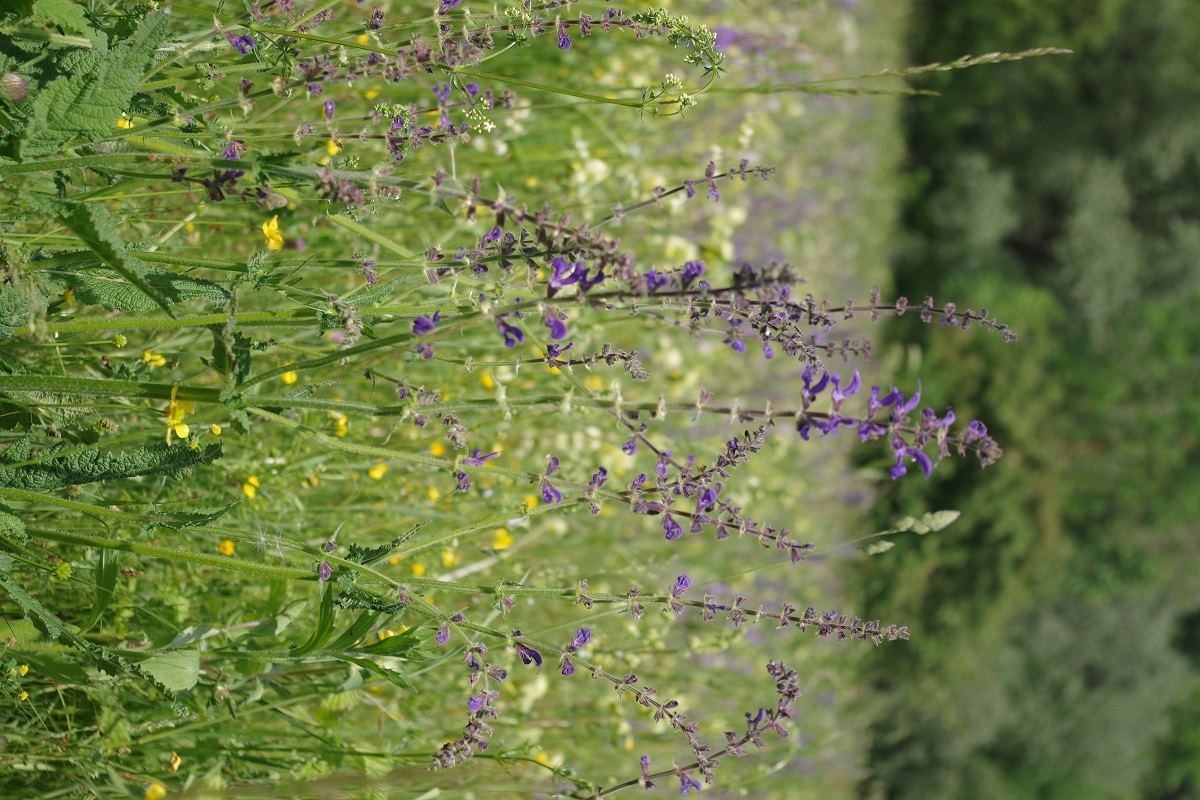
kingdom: Plantae
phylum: Tracheophyta
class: Magnoliopsida
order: Lamiales
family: Lamiaceae
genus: Salvia
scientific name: Salvia pratensis
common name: Meadow sage
